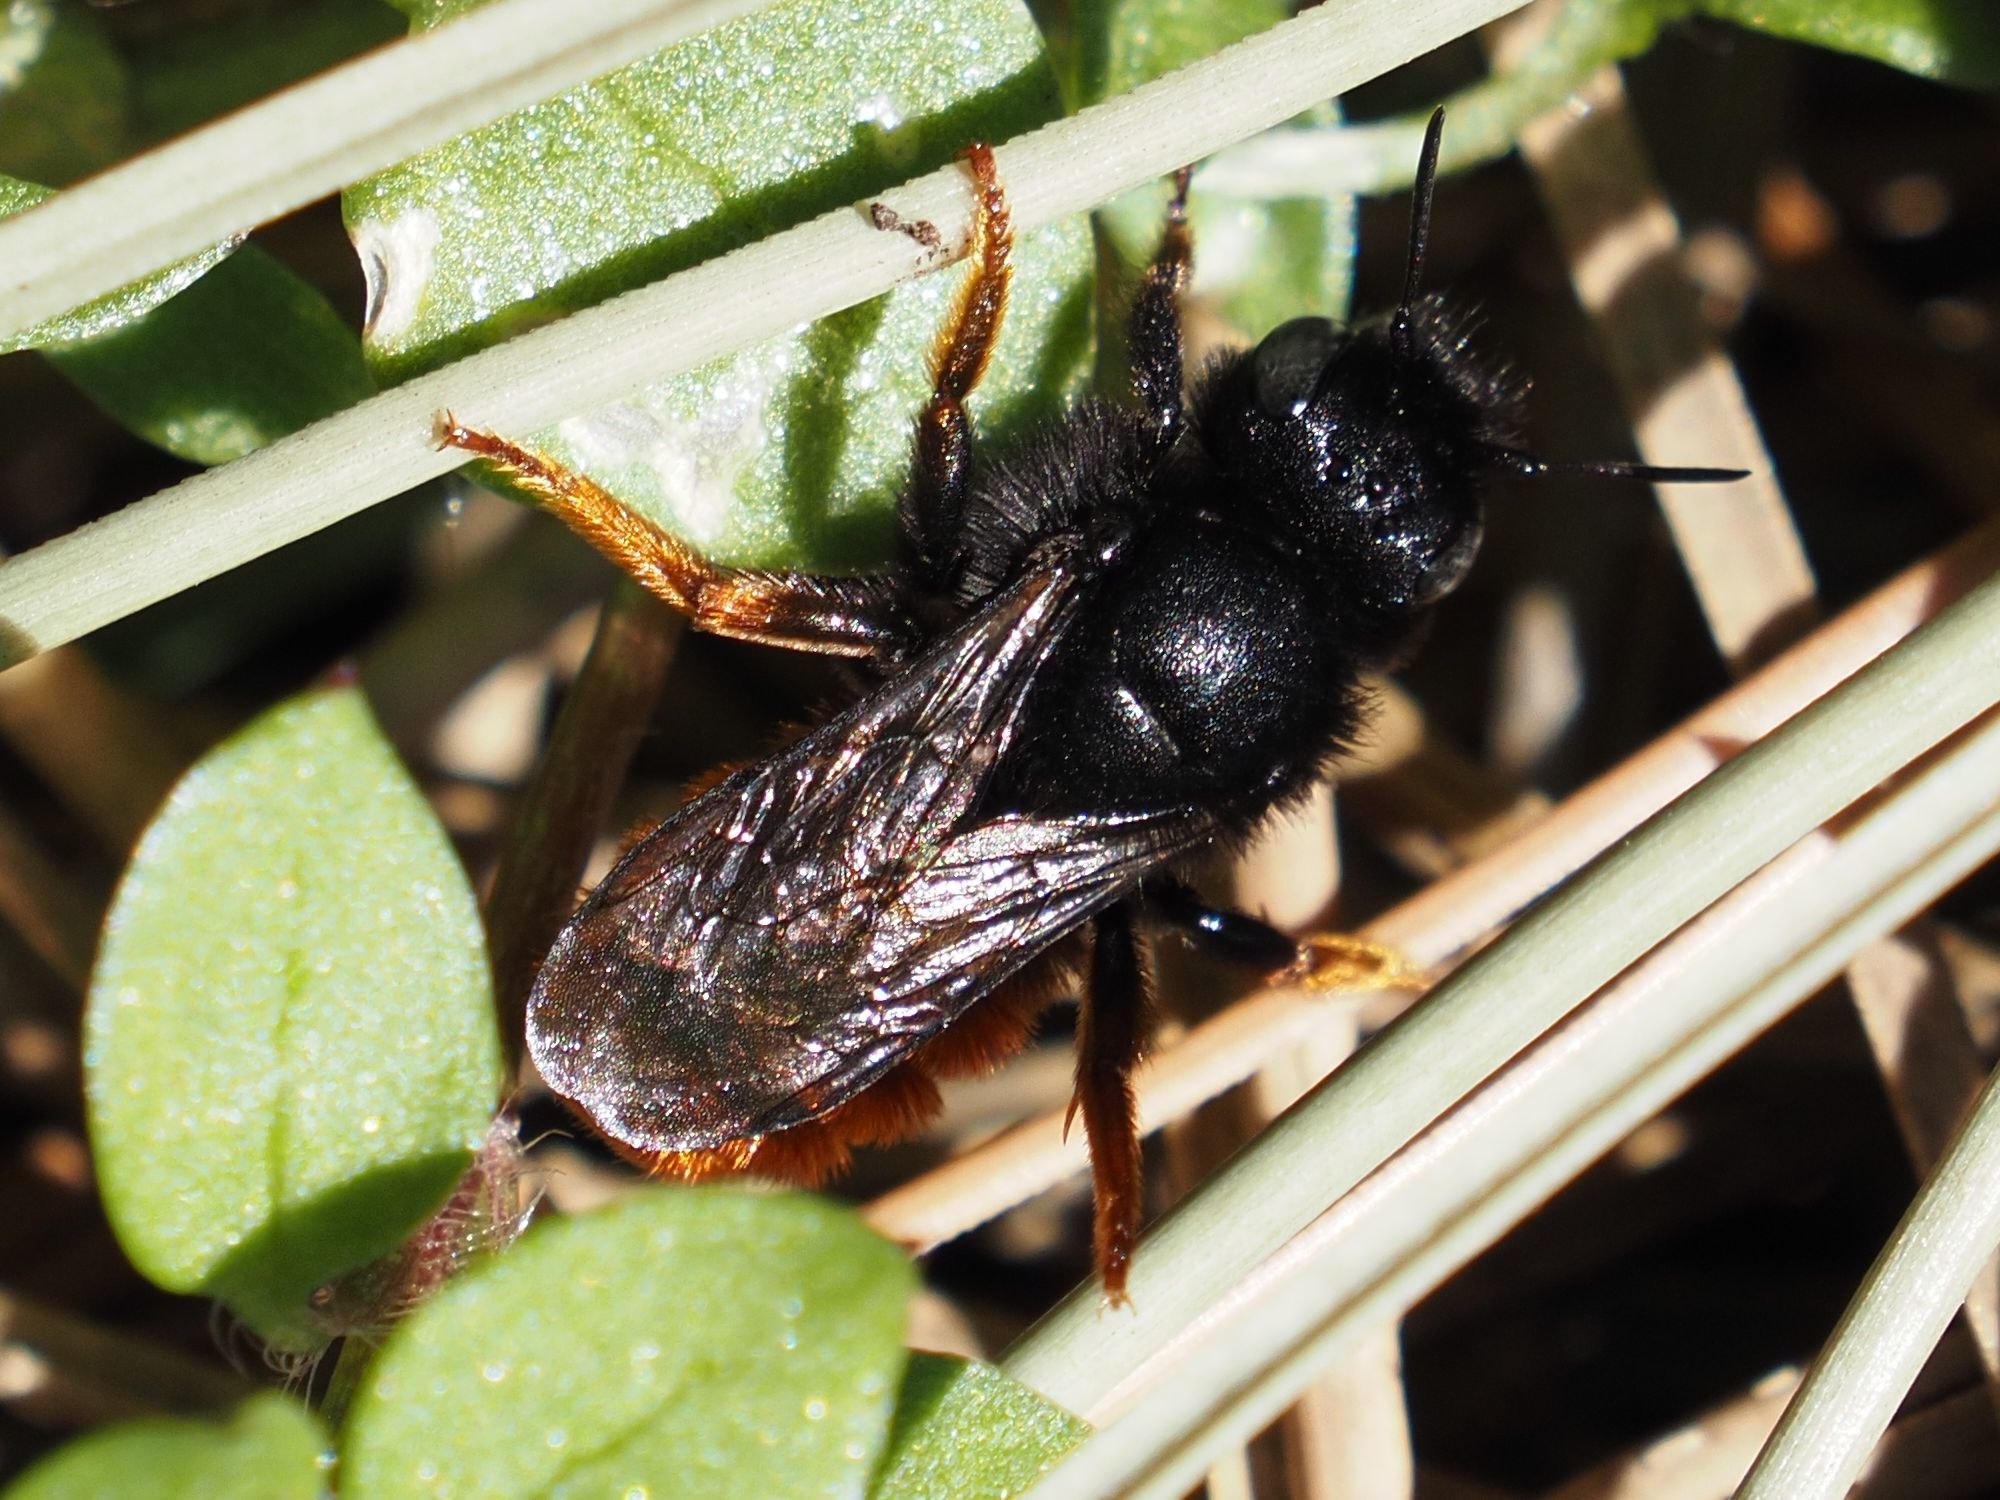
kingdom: Animalia
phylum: Arthropoda
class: Insecta
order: Hymenoptera
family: Megachilidae
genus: Osmia
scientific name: Osmia bicolor
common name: Red-tailed mason bee
